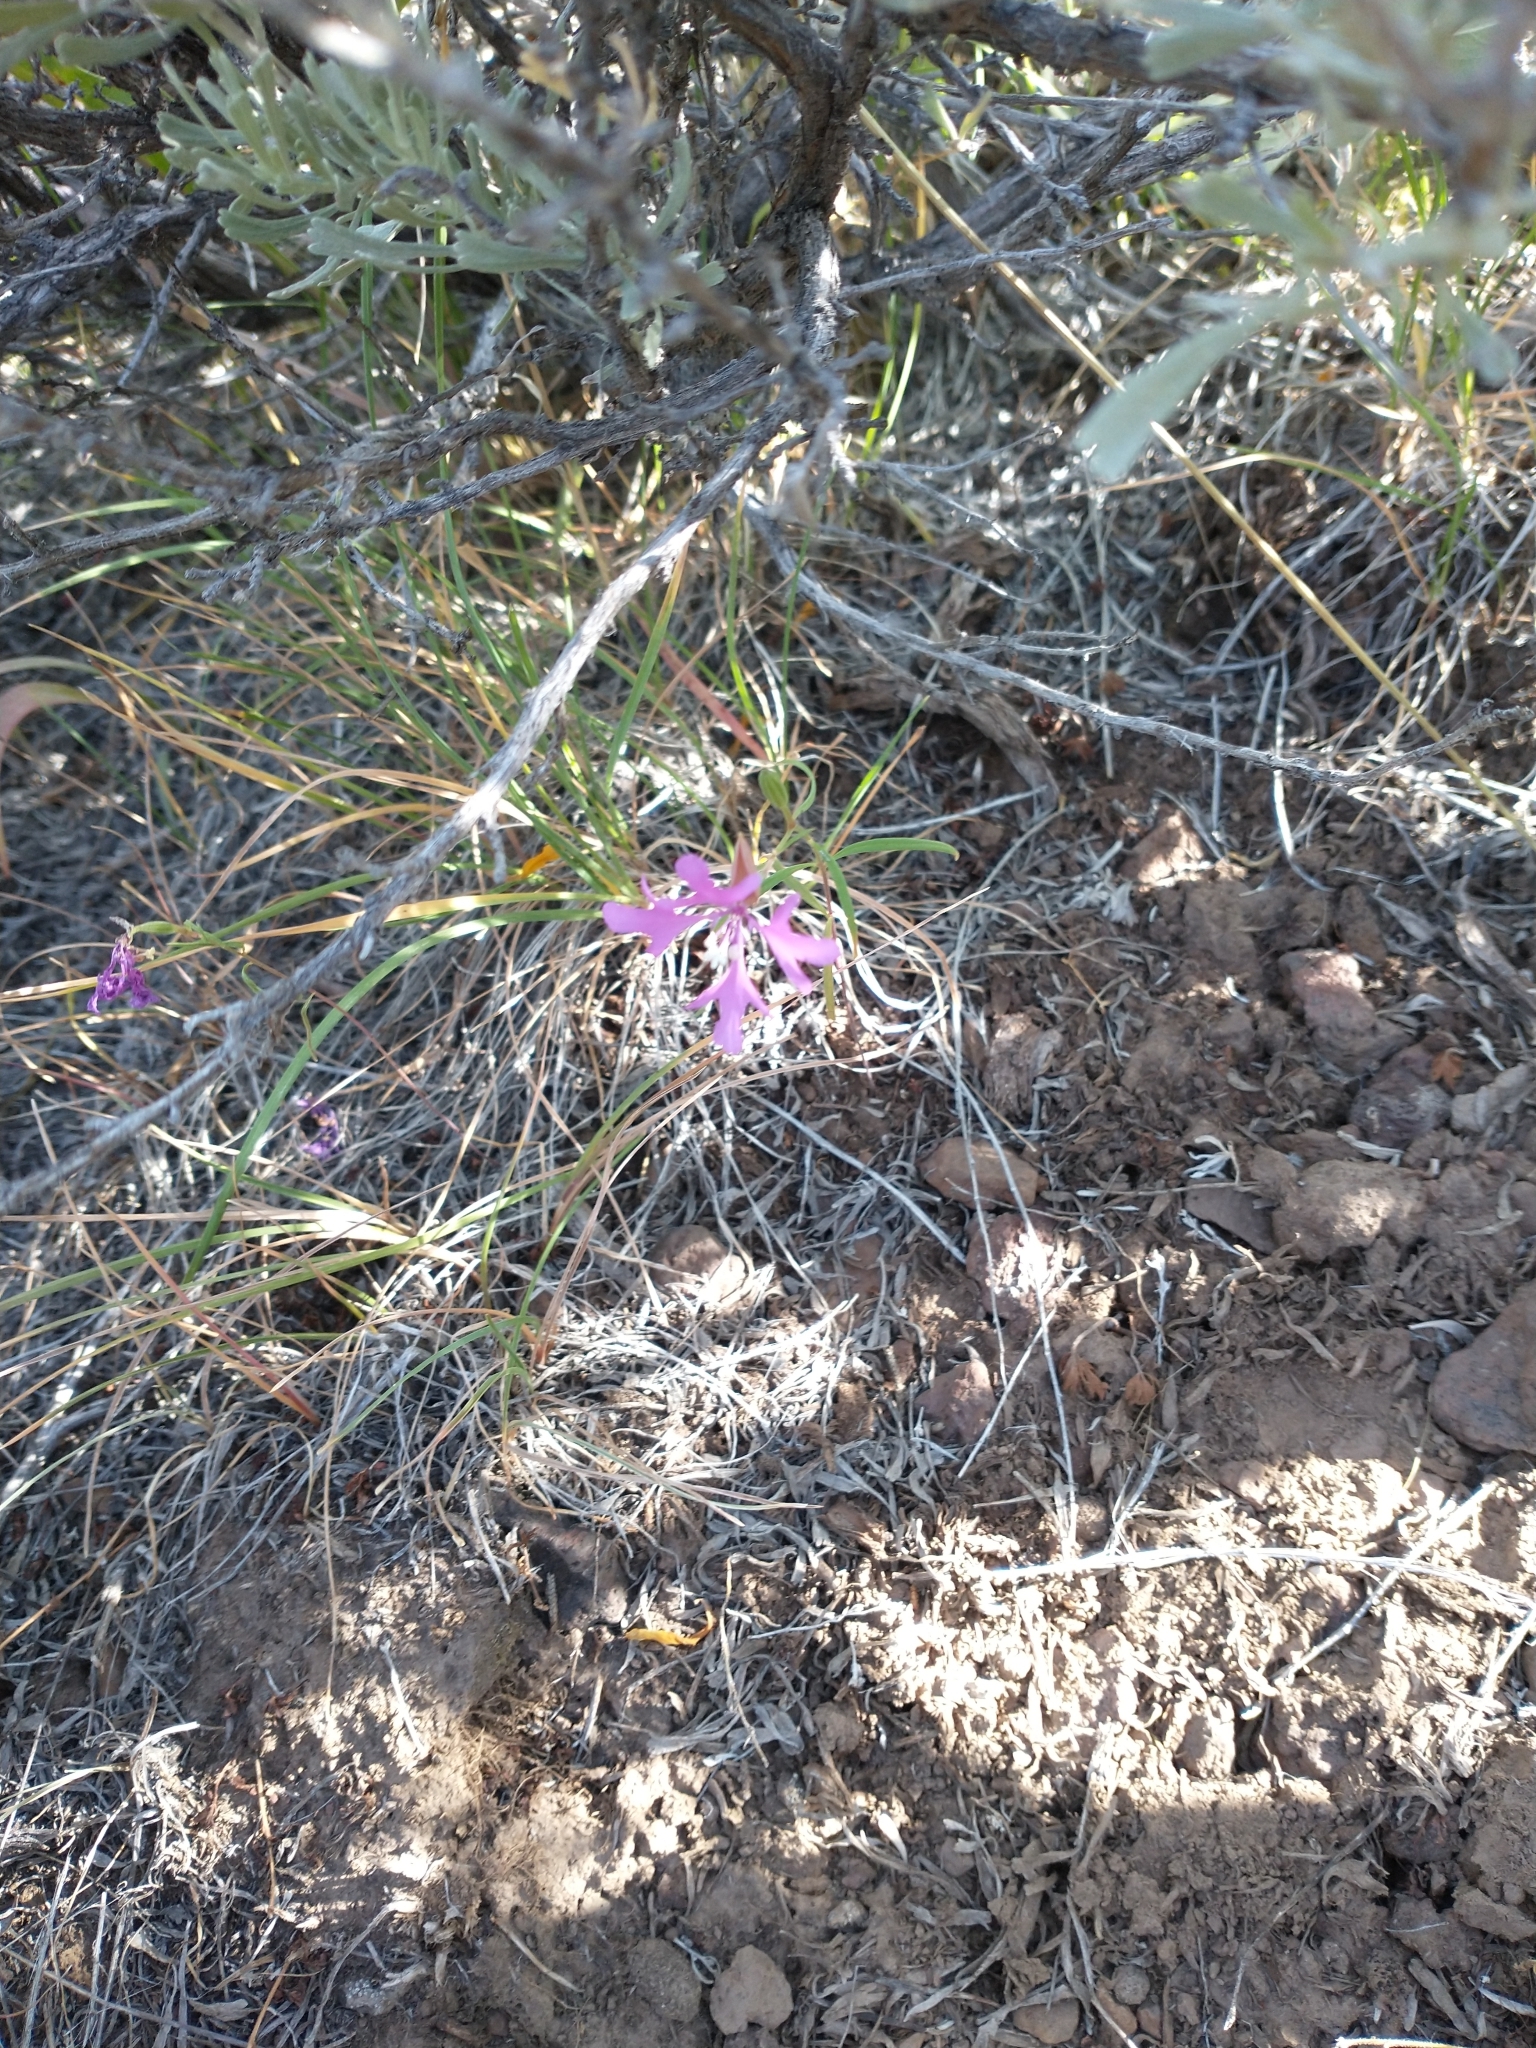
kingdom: Plantae
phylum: Tracheophyta
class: Magnoliopsida
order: Myrtales
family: Onagraceae
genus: Clarkia
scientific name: Clarkia pulchella
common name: Deer horn
